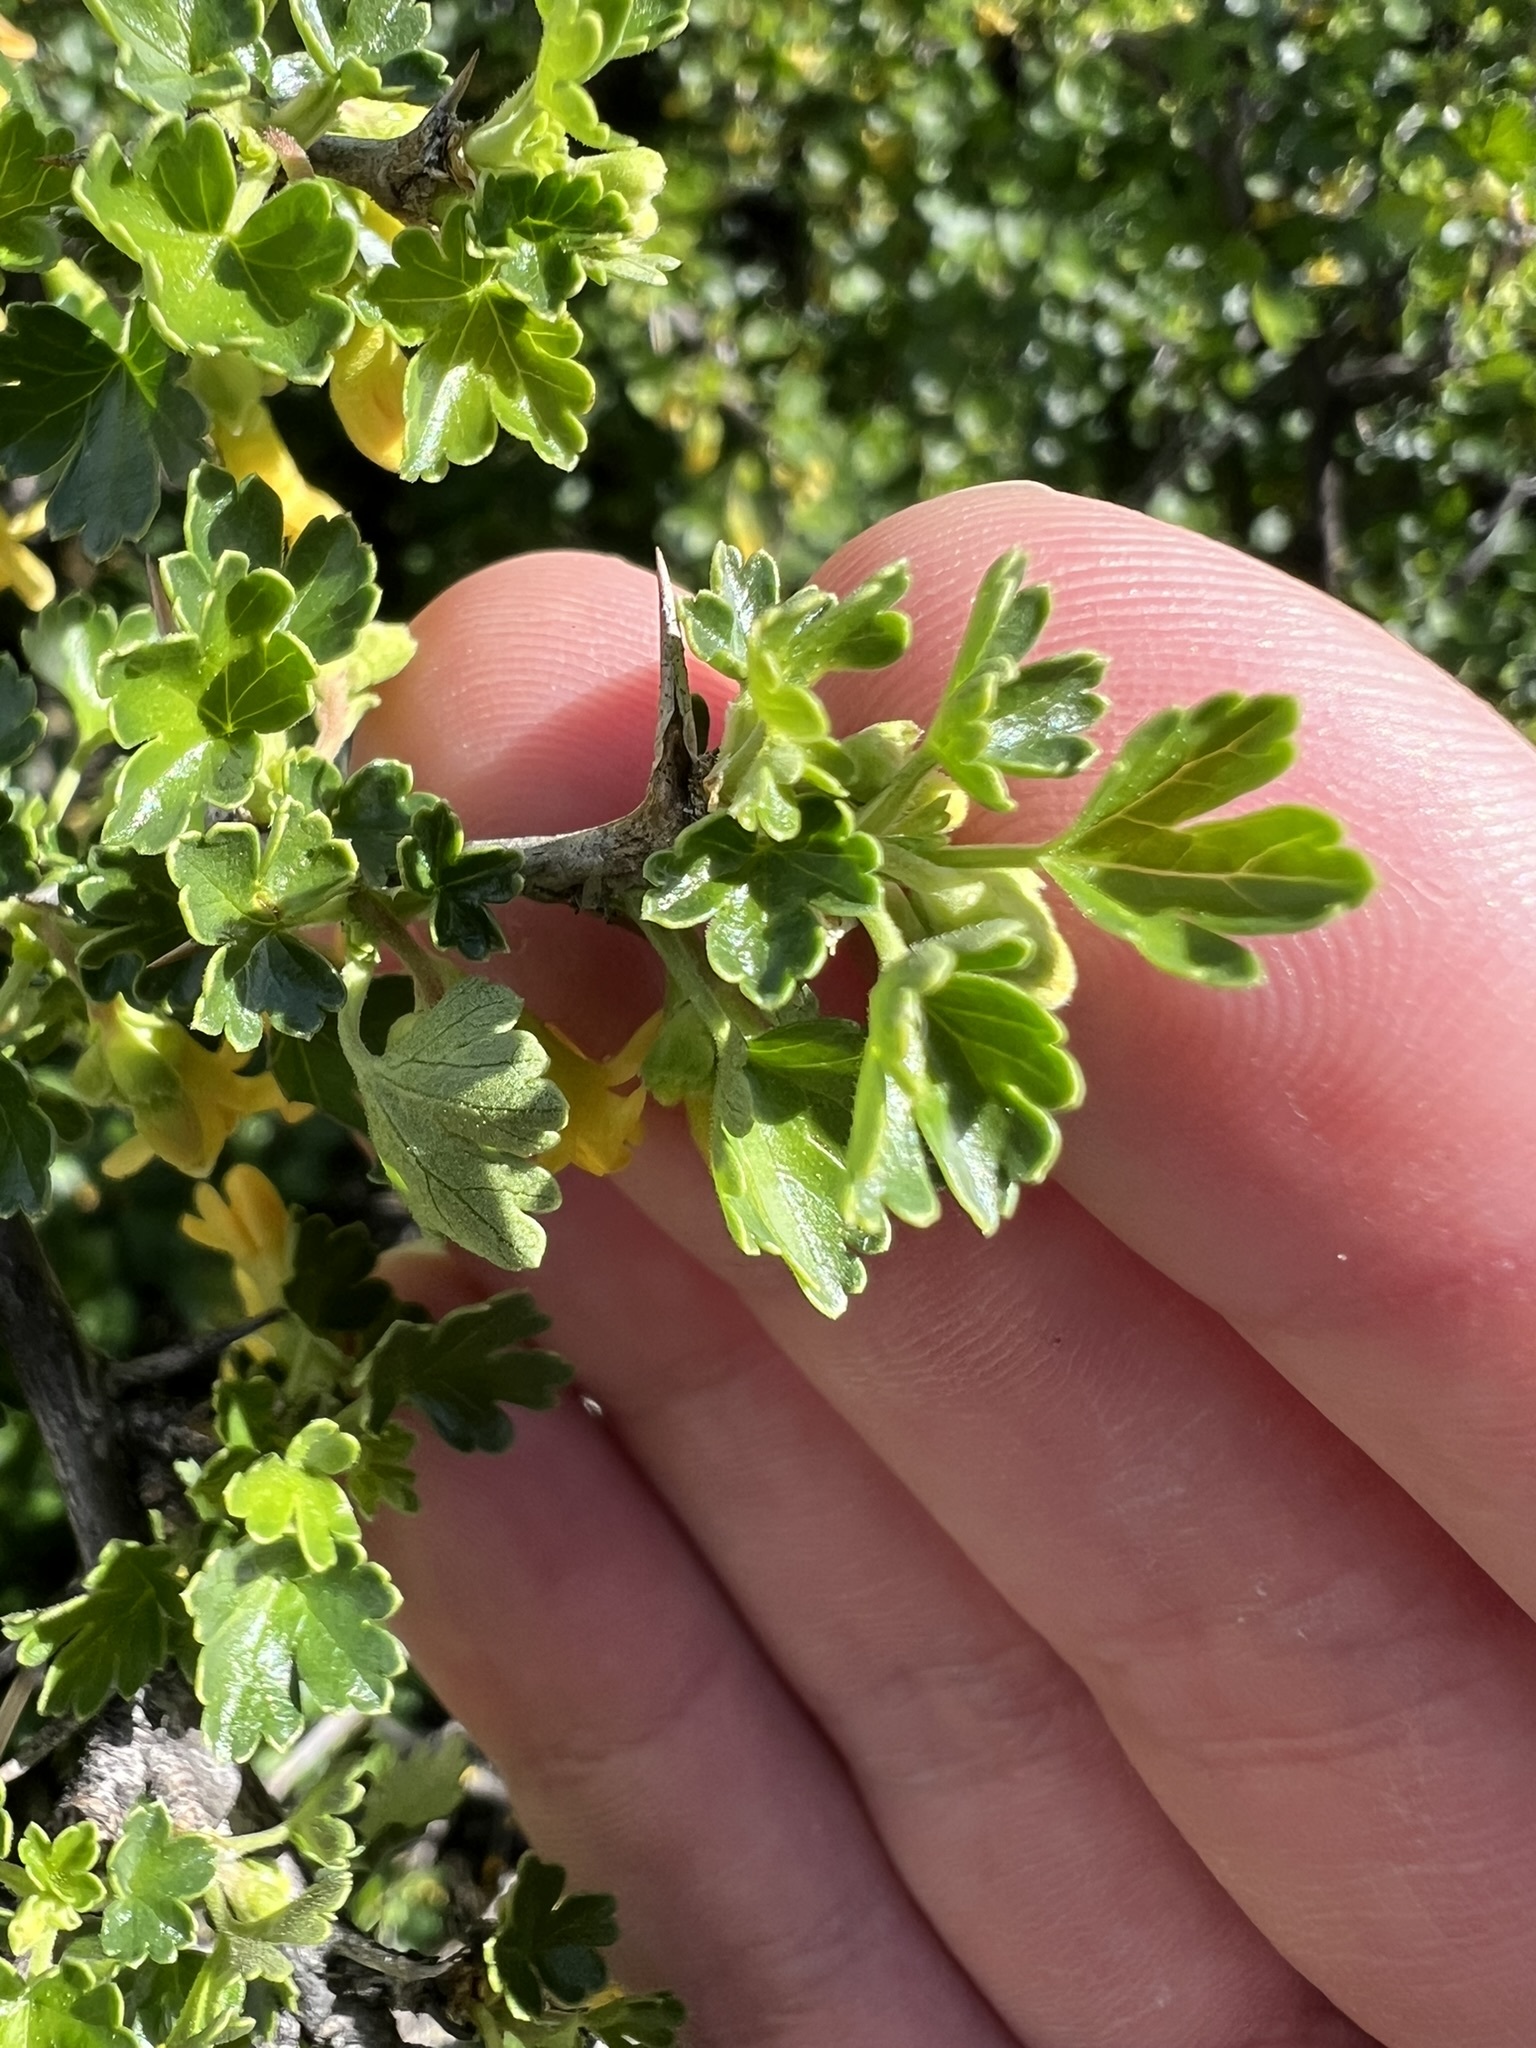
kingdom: Plantae
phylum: Tracheophyta
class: Magnoliopsida
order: Saxifragales
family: Grossulariaceae
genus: Ribes
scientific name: Ribes quercetorum
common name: Oak gooseberry
